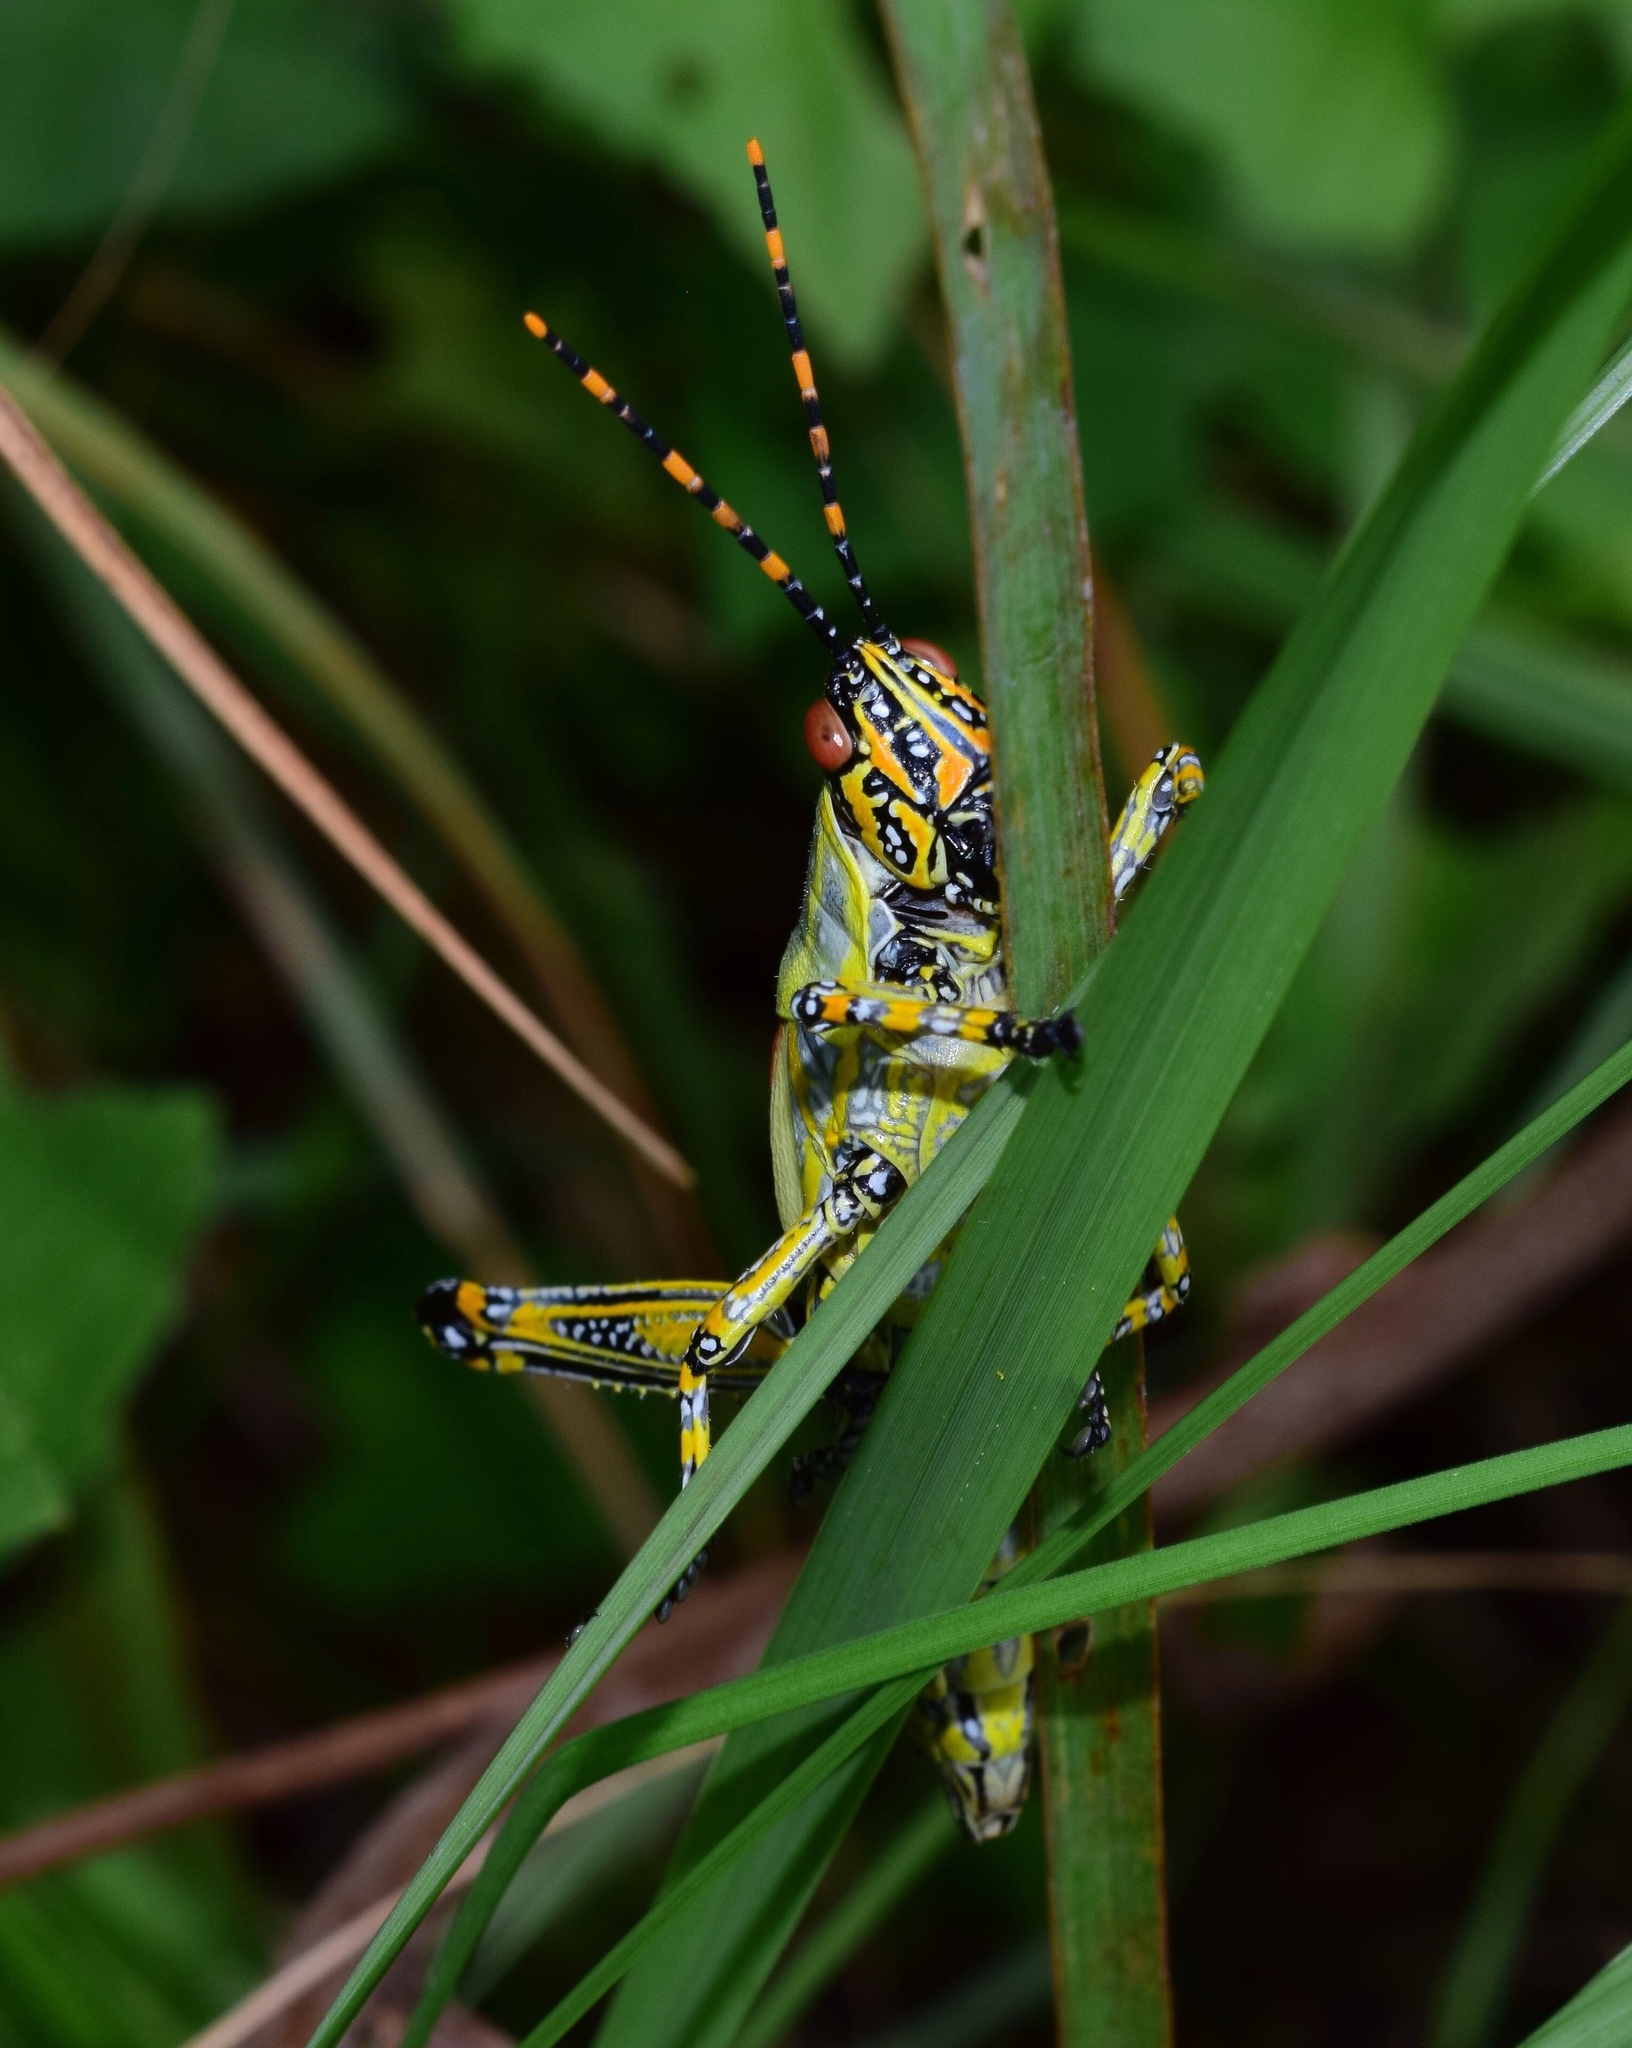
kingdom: Animalia
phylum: Arthropoda
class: Insecta
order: Orthoptera
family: Pyrgomorphidae
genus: Zonocerus
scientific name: Zonocerus elegans
